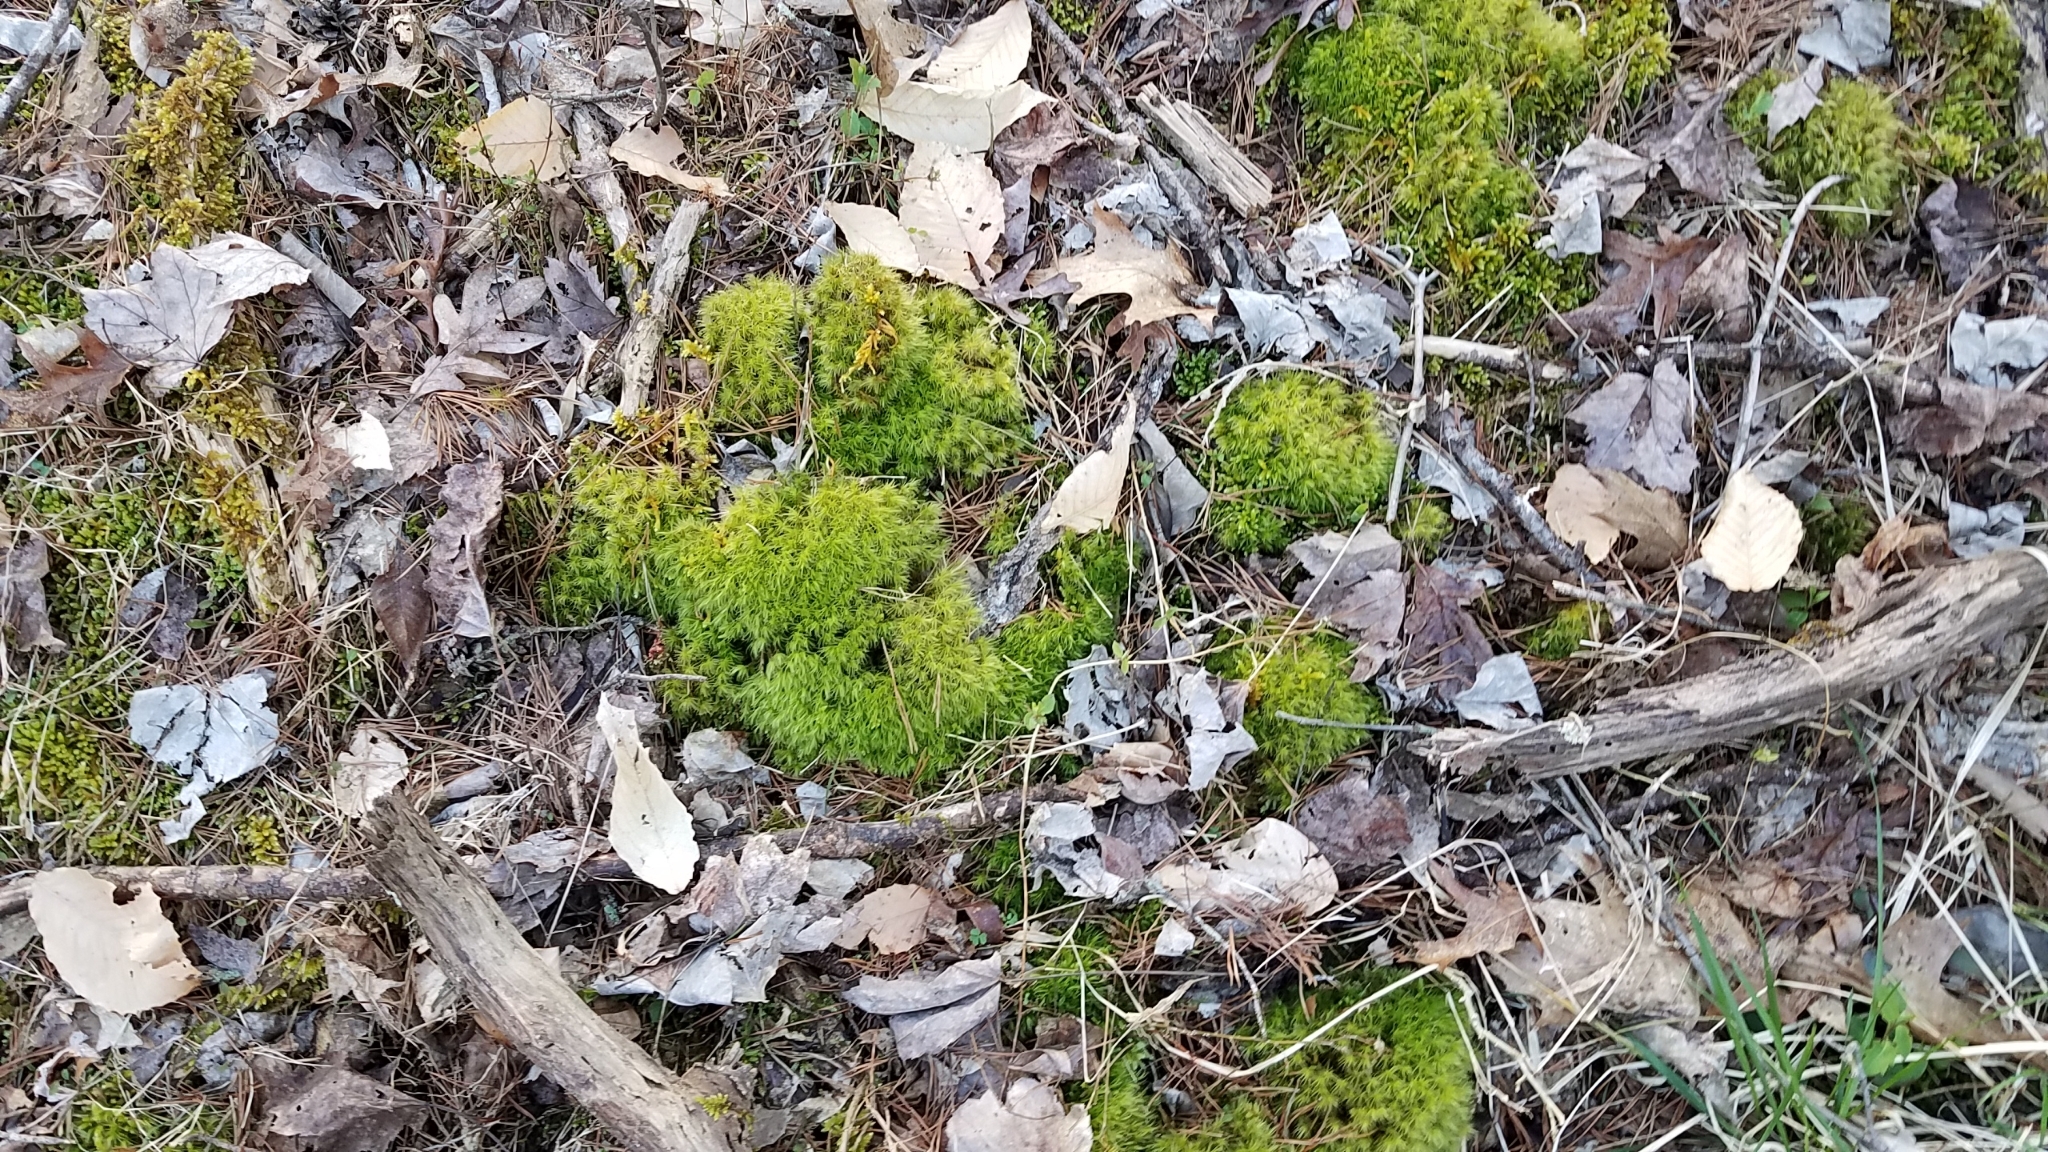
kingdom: Plantae
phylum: Bryophyta
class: Bryopsida
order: Hypnales
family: Brachytheciaceae
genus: Bryoandersonia
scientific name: Bryoandersonia illecebra
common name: Spoon-leaved moss
